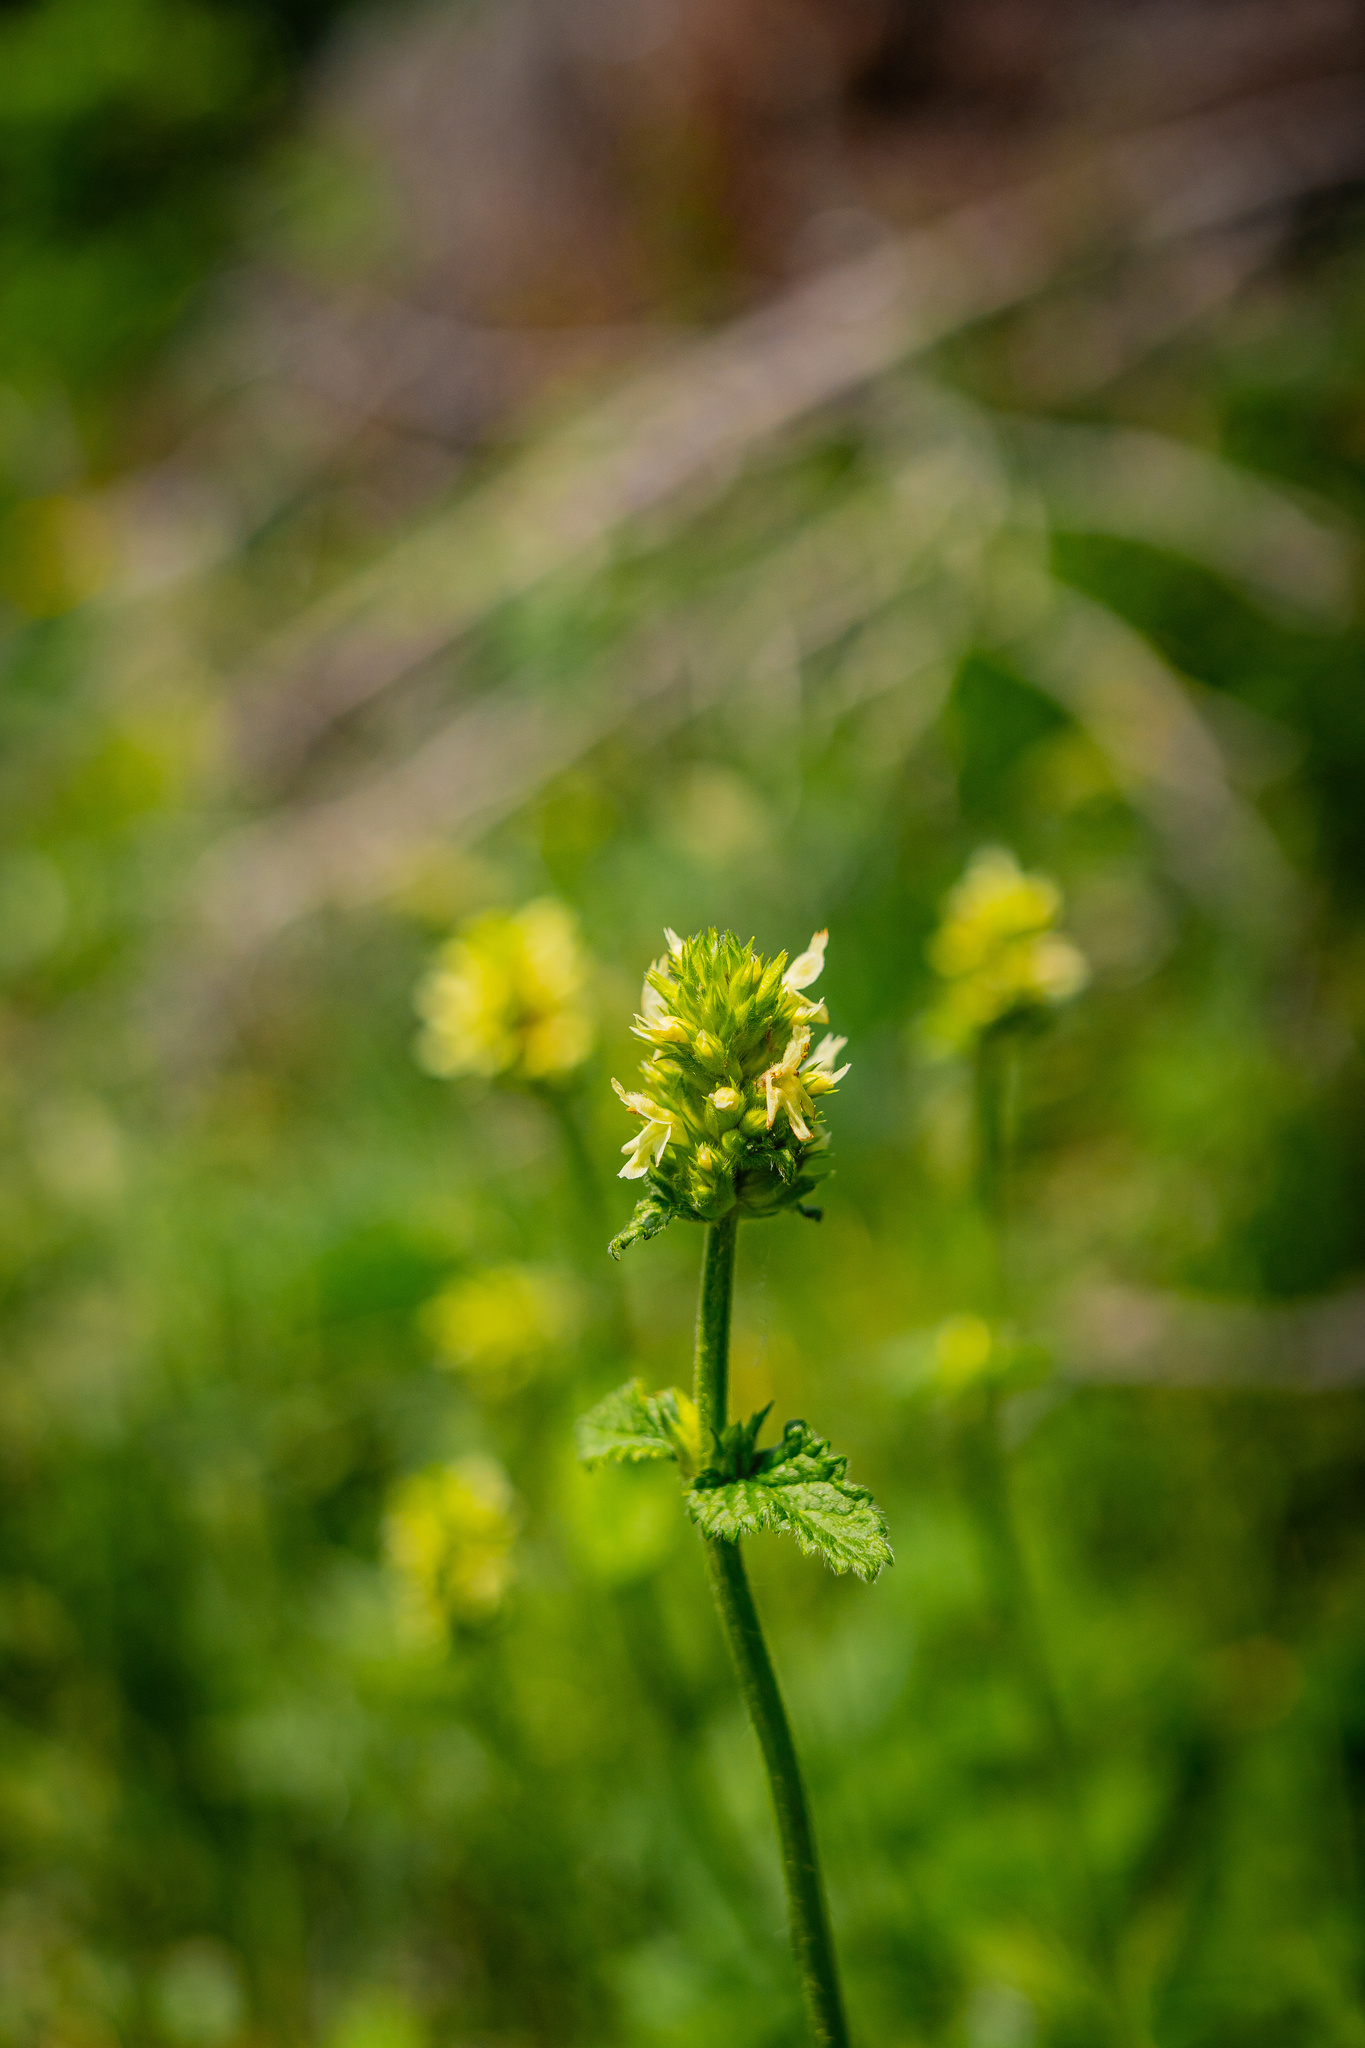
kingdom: Plantae
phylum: Tracheophyta
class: Magnoliopsida
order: Lamiales
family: Lamiaceae
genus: Betonica
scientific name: Betonica alopecuros
